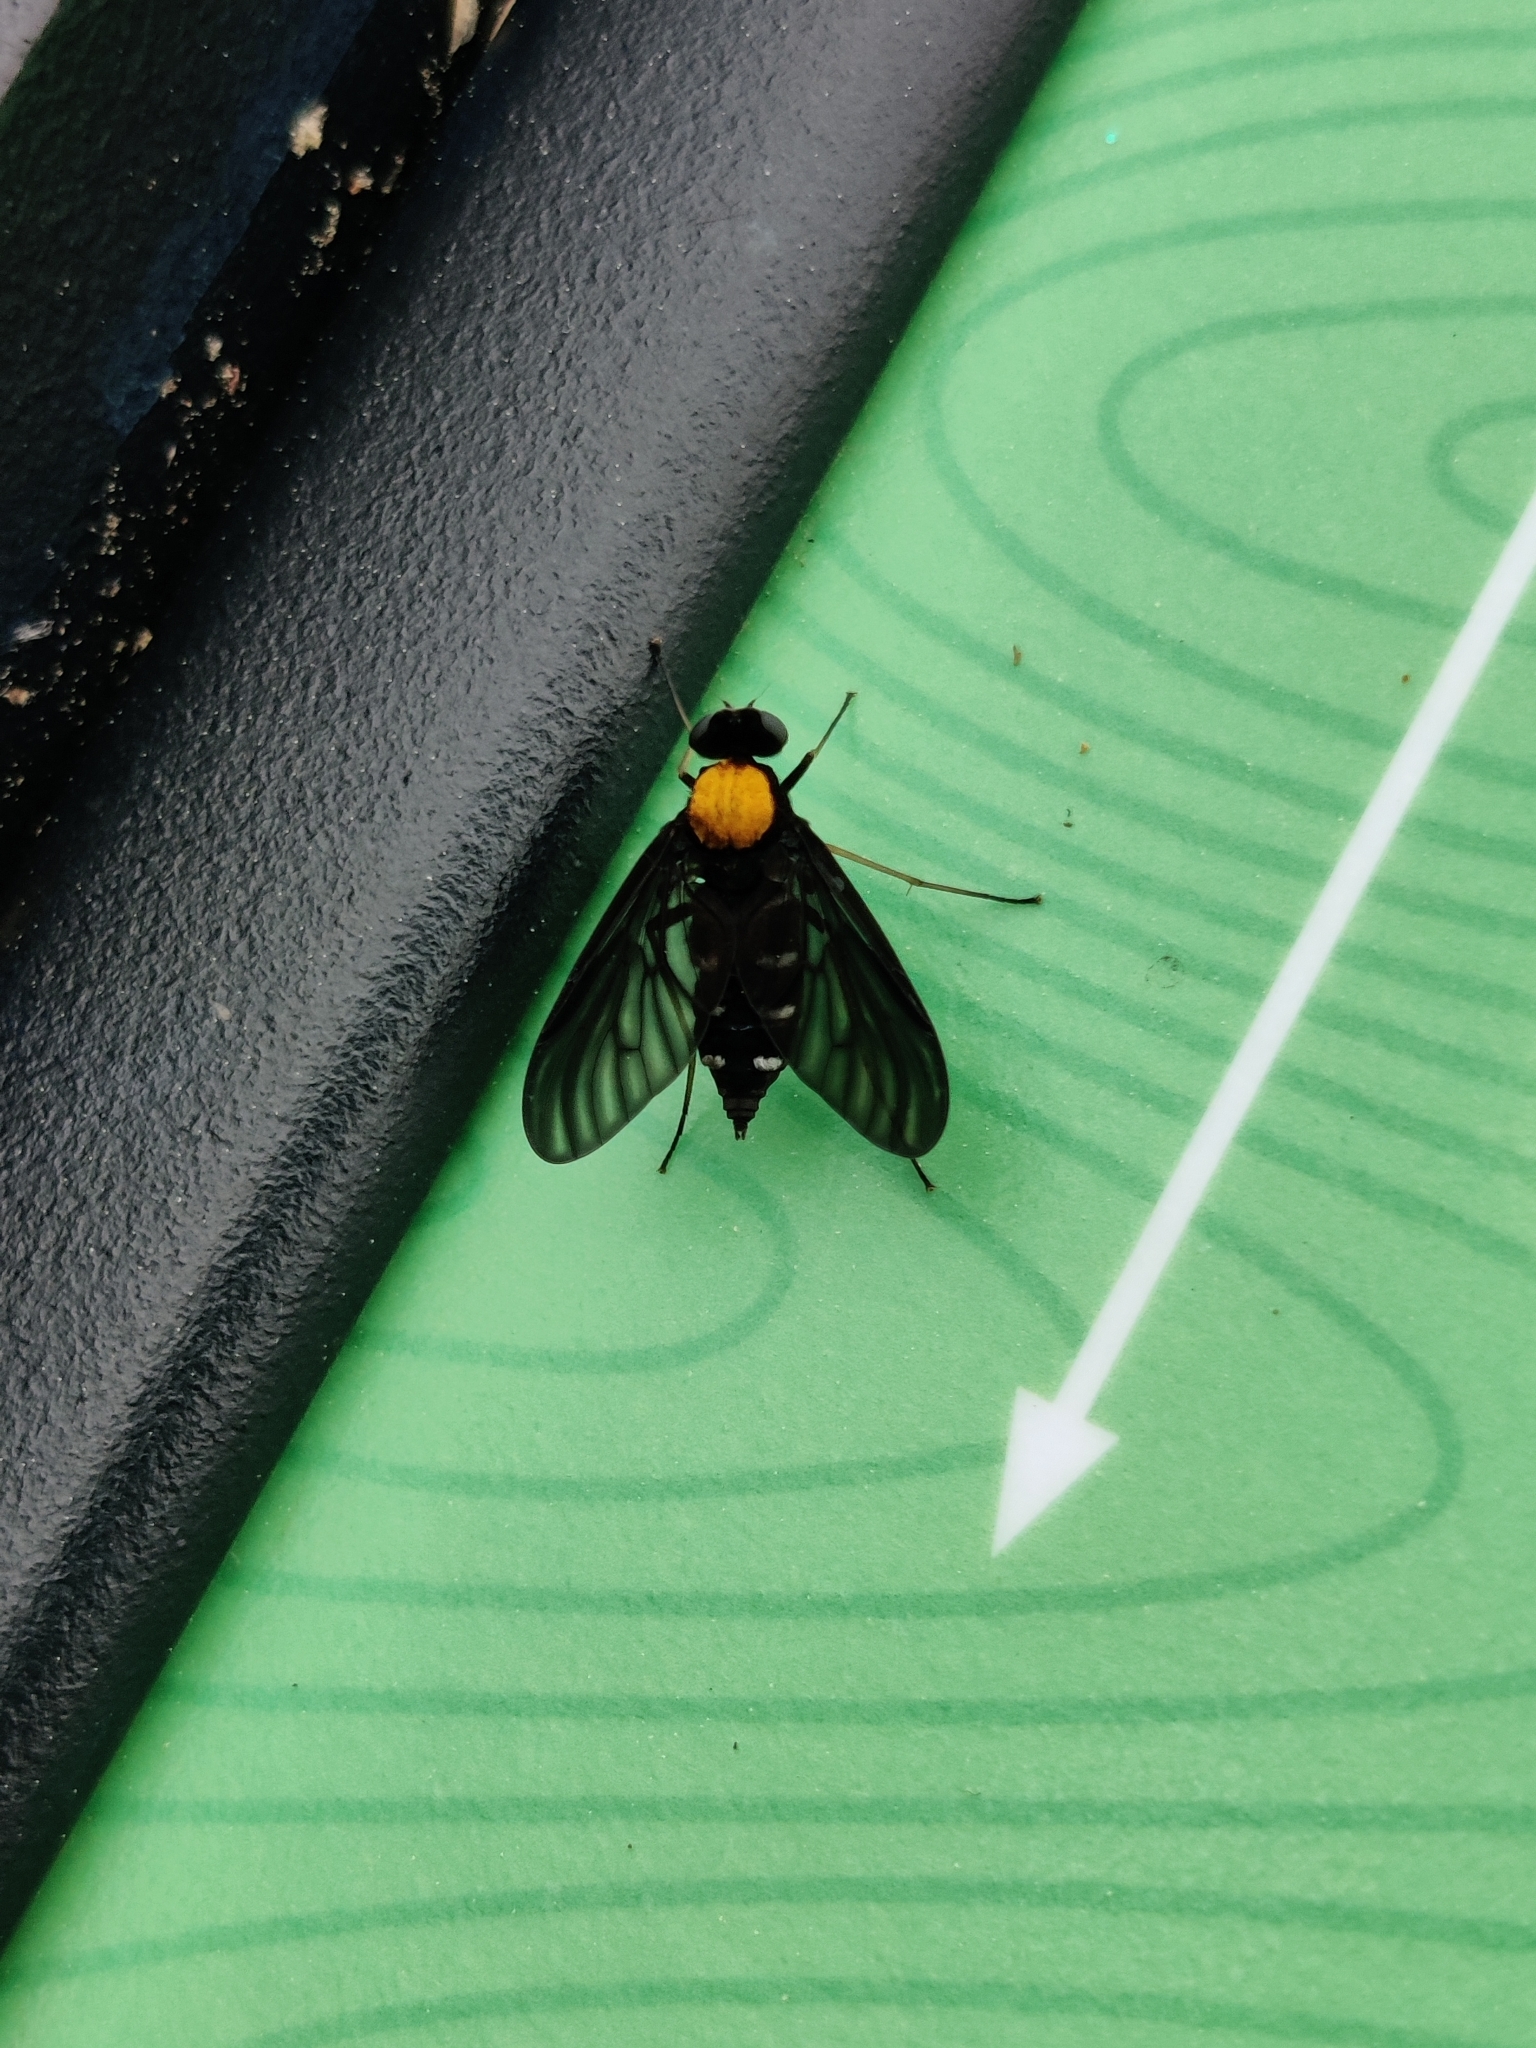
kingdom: Animalia
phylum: Arthropoda
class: Insecta
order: Diptera
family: Rhagionidae
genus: Chrysopilus
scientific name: Chrysopilus thoracicus
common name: Golden-backed snipe fly
